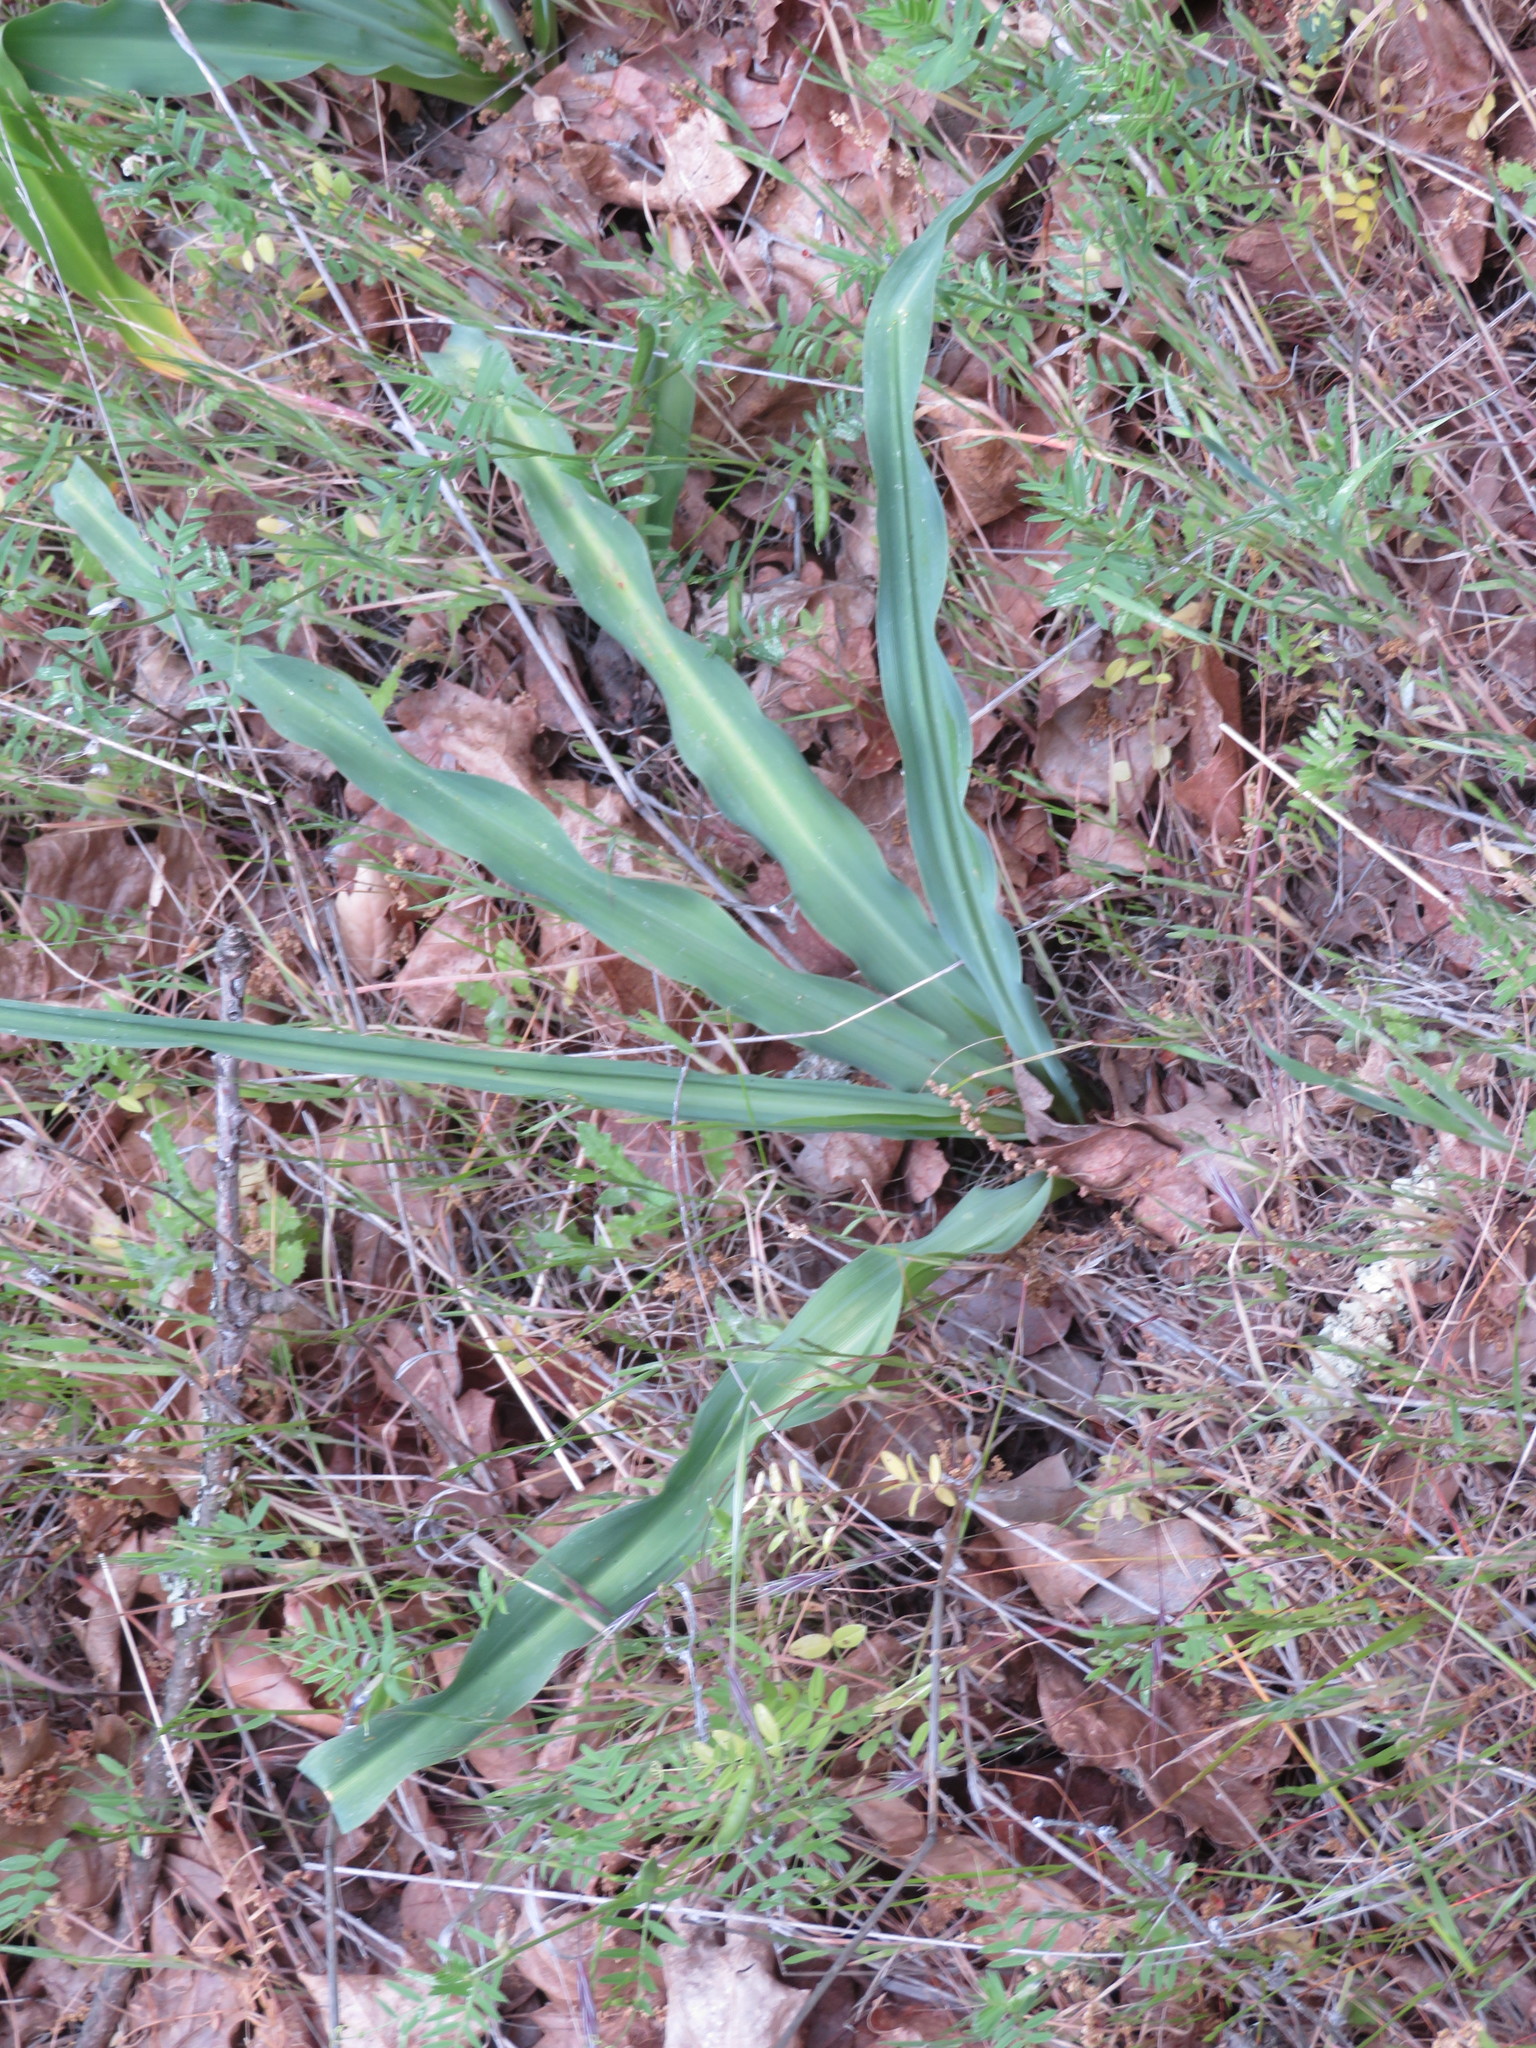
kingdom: Plantae
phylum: Tracheophyta
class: Liliopsida
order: Asparagales
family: Asparagaceae
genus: Chlorogalum
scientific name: Chlorogalum pomeridianum
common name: Amole
